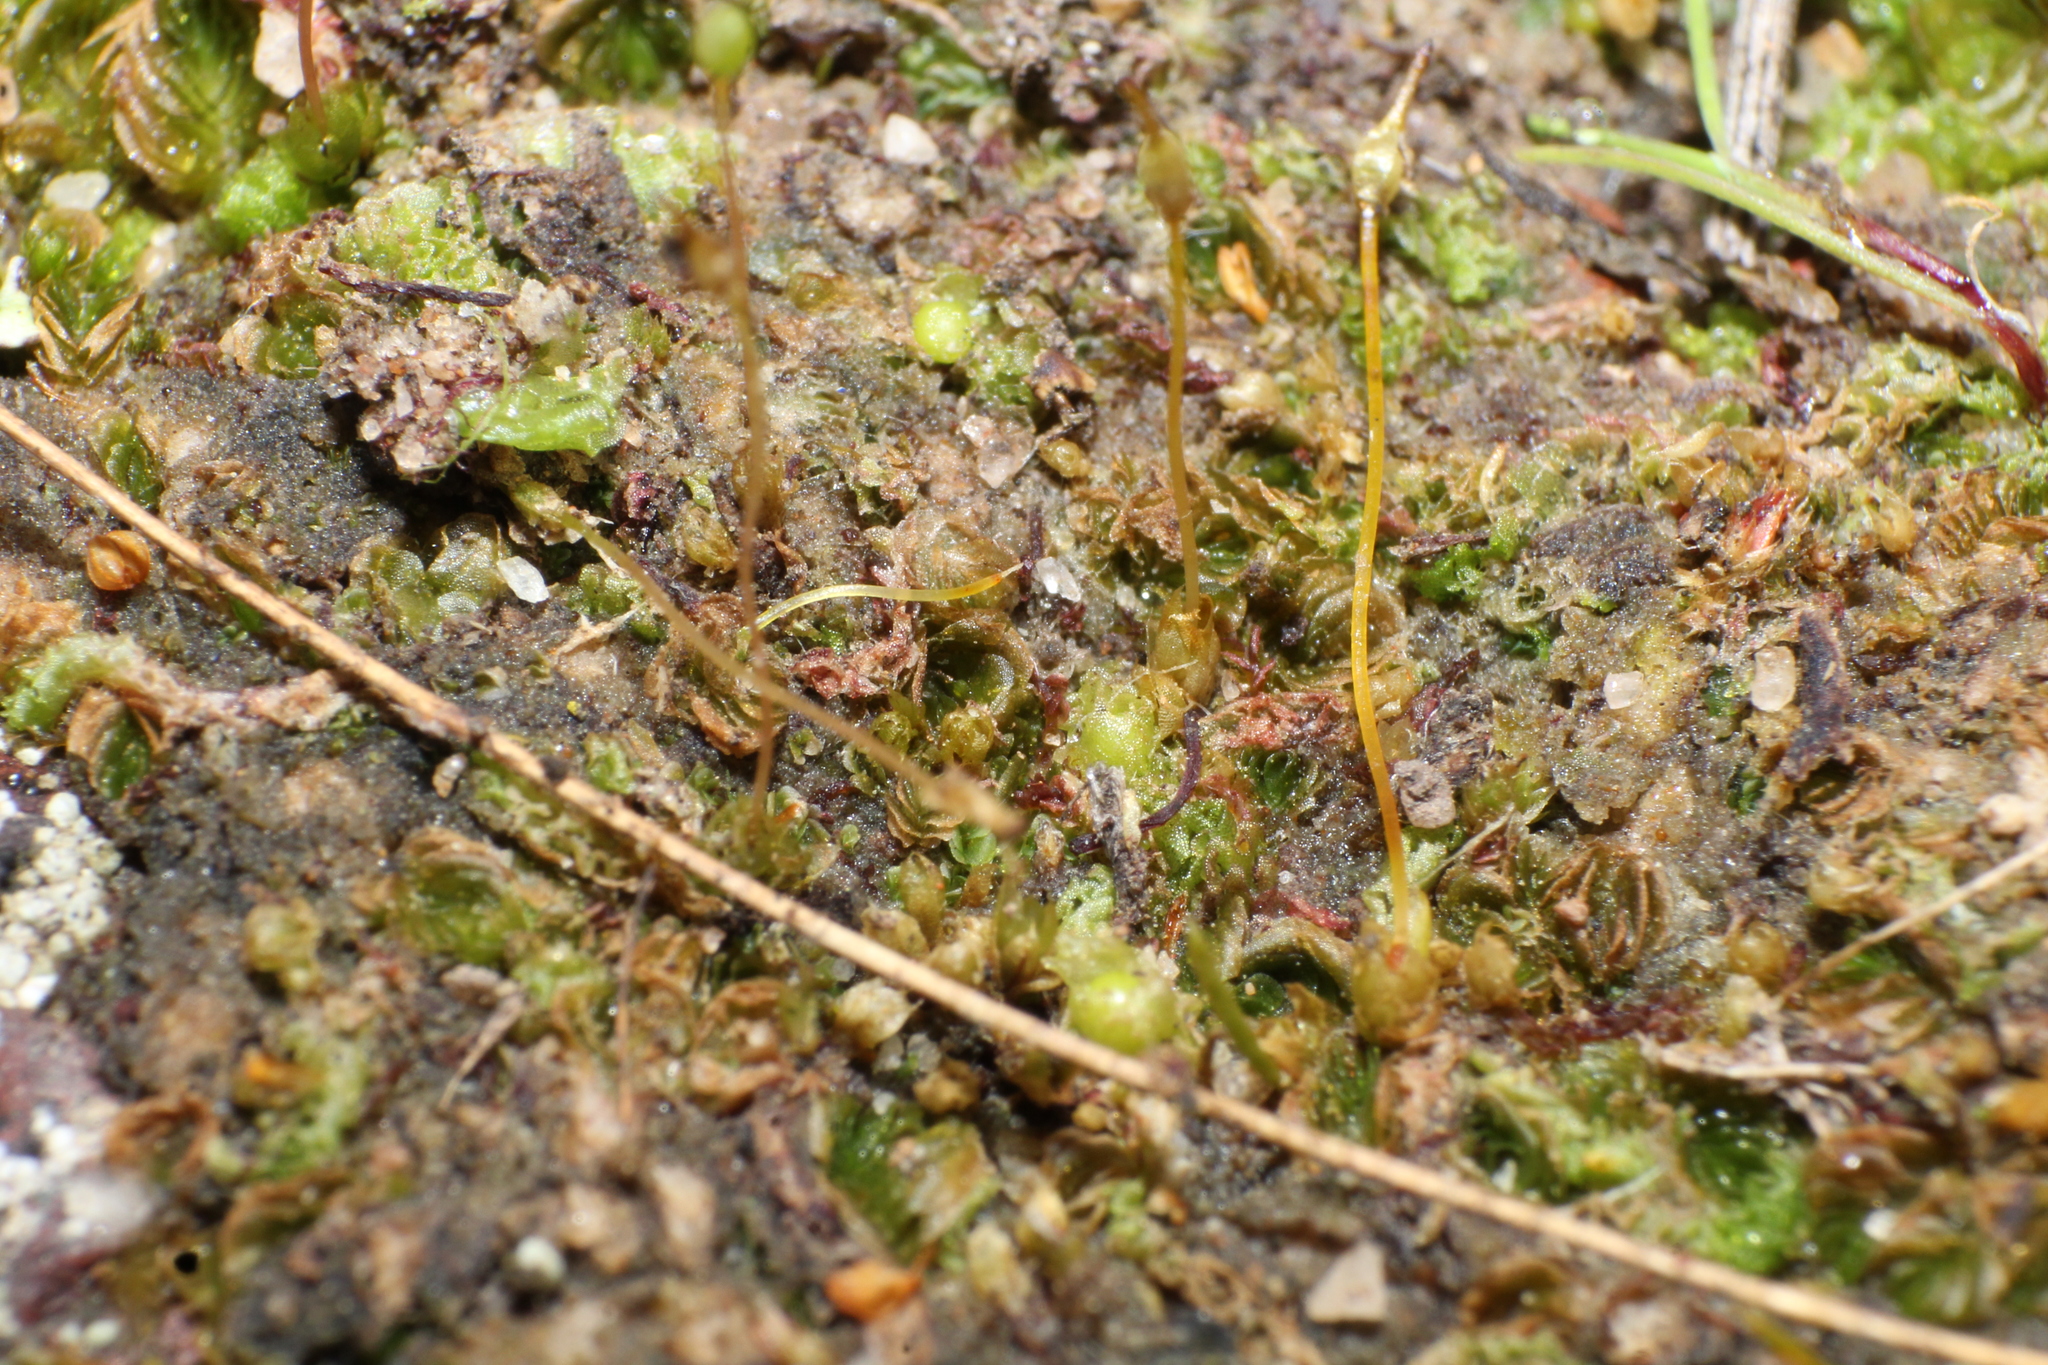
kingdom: Plantae
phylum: Bryophyta
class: Bryopsida
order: Funariales
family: Funariaceae
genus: Entosthodon
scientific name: Entosthodon subnudus
